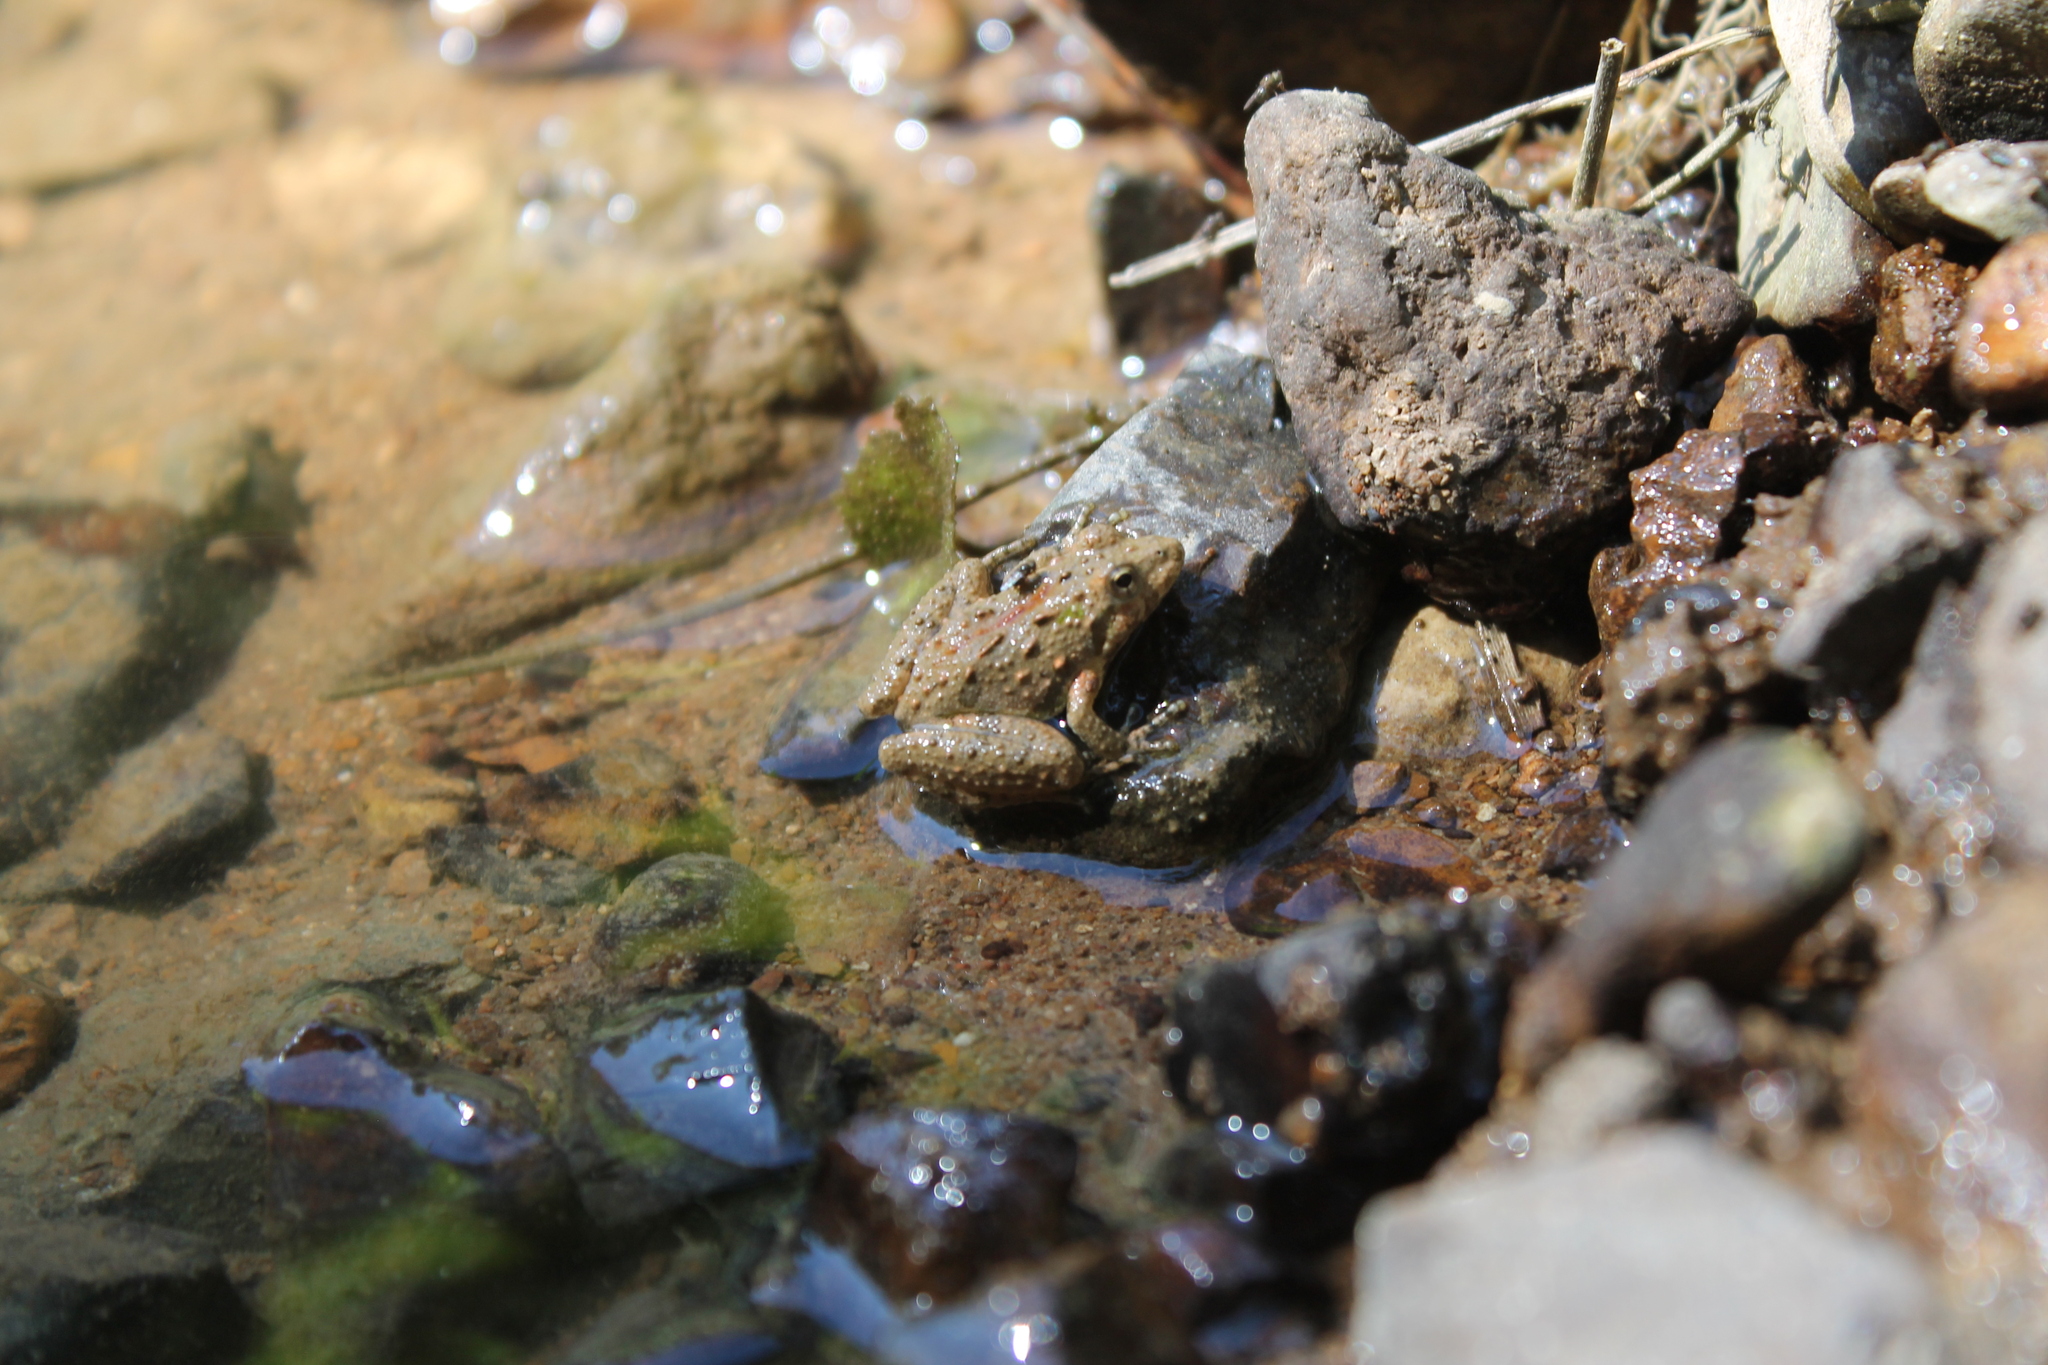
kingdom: Animalia
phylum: Chordata
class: Amphibia
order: Anura
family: Hylidae
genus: Acris
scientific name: Acris crepitans
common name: Northern cricket frog
